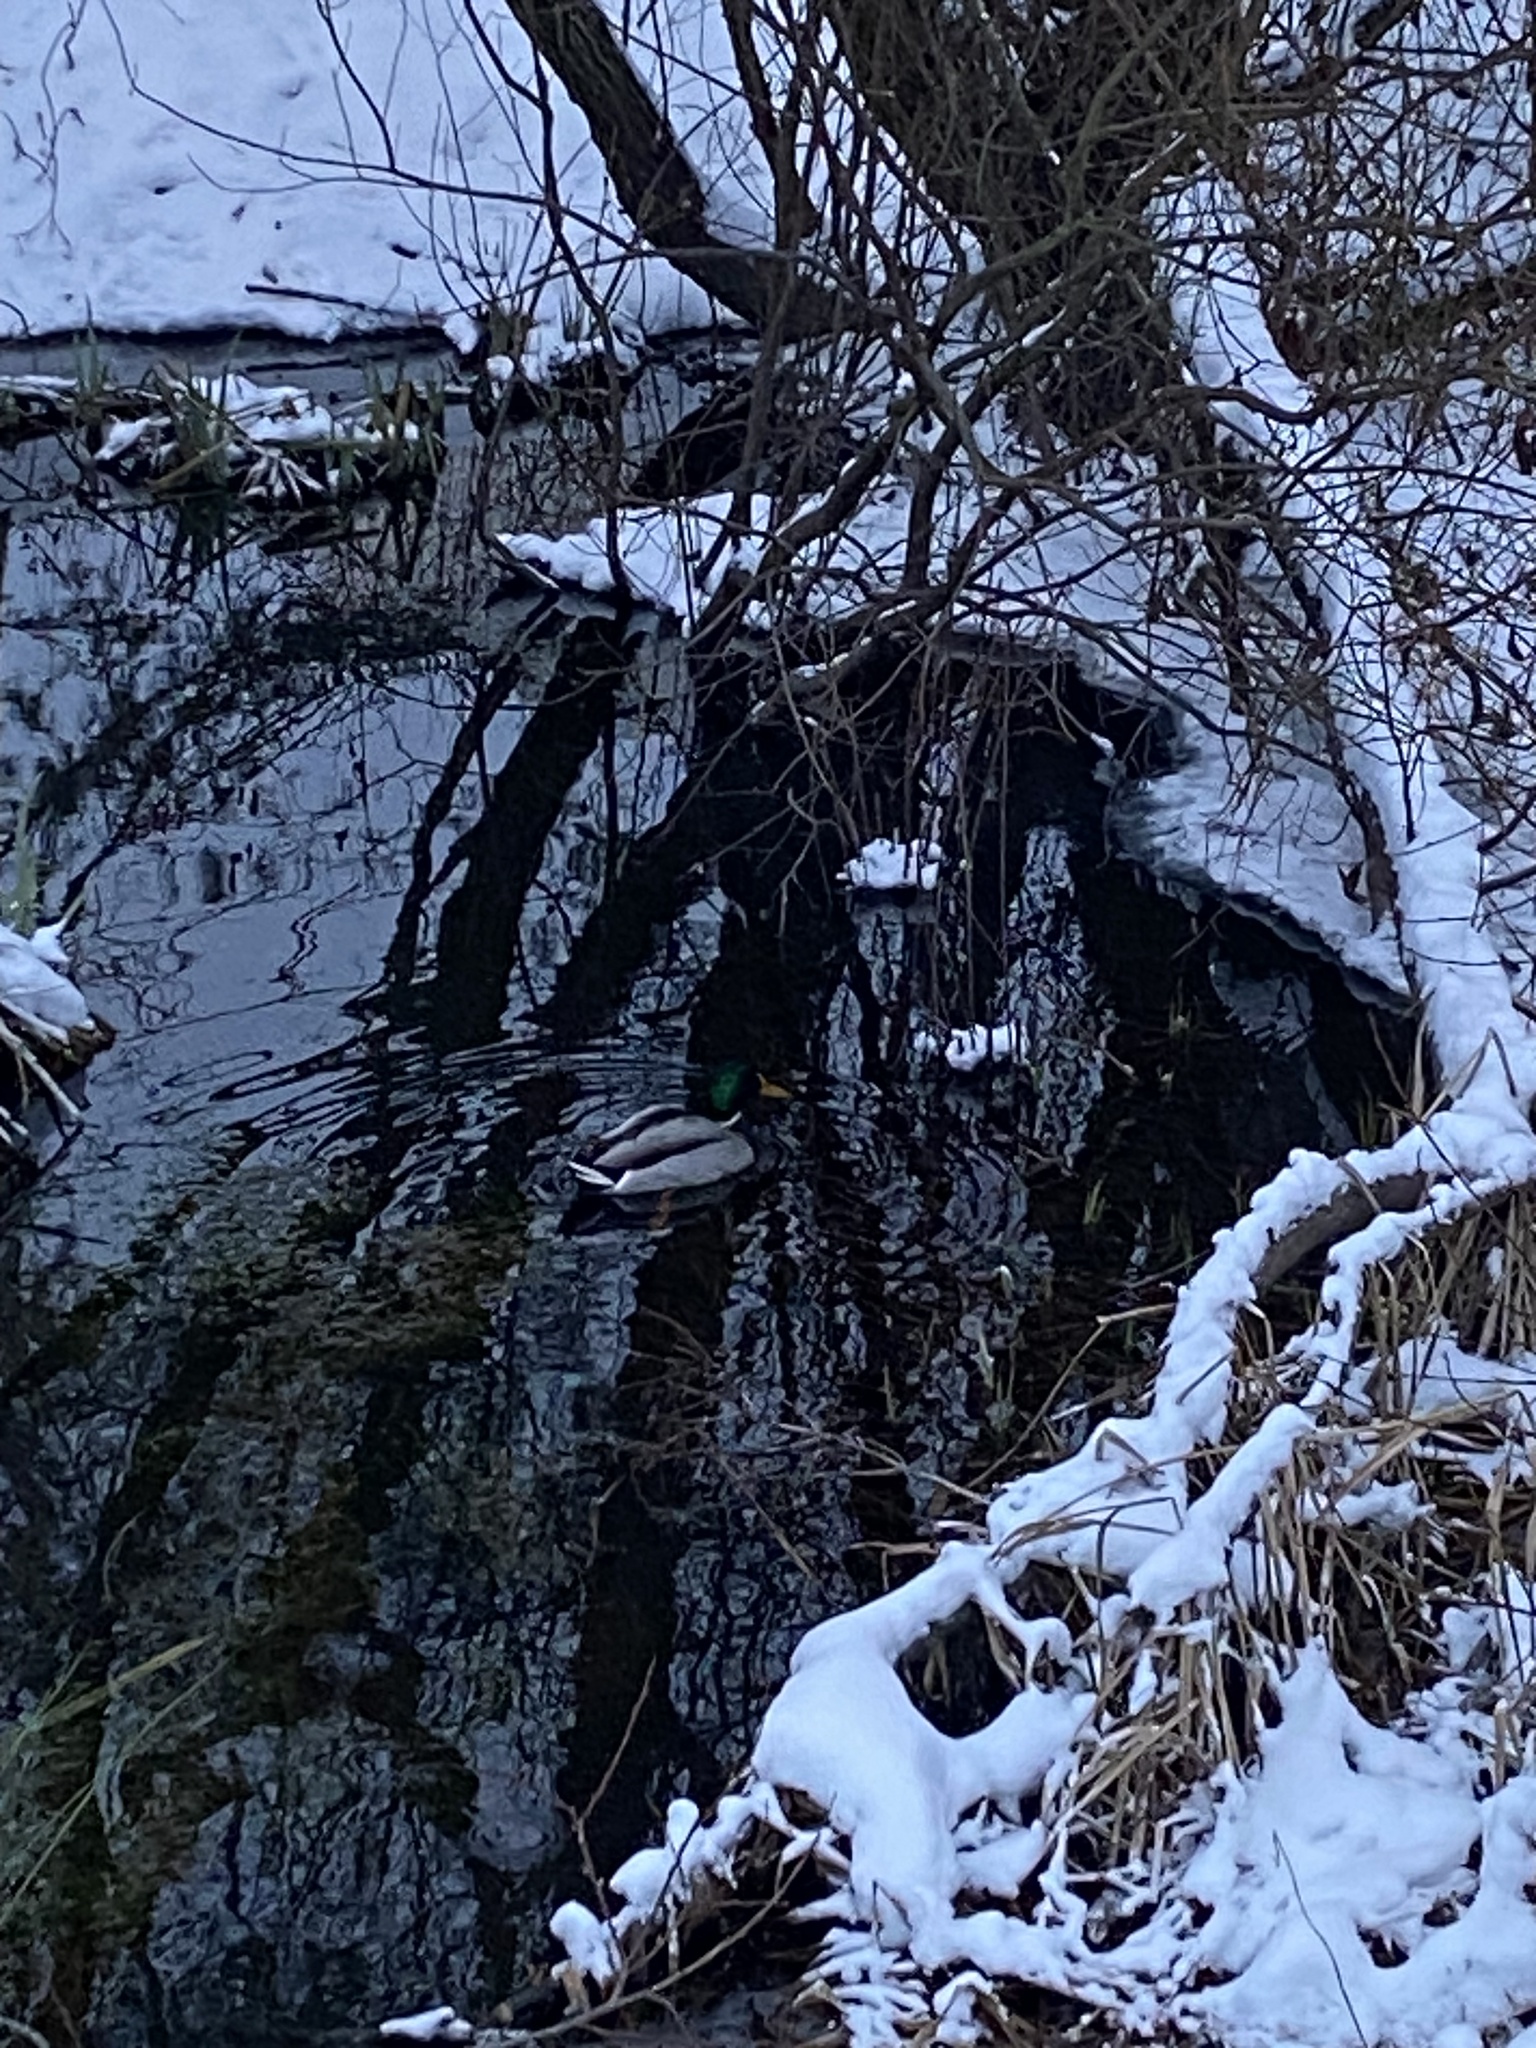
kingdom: Animalia
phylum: Chordata
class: Aves
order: Anseriformes
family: Anatidae
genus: Anas
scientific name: Anas platyrhynchos
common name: Mallard
